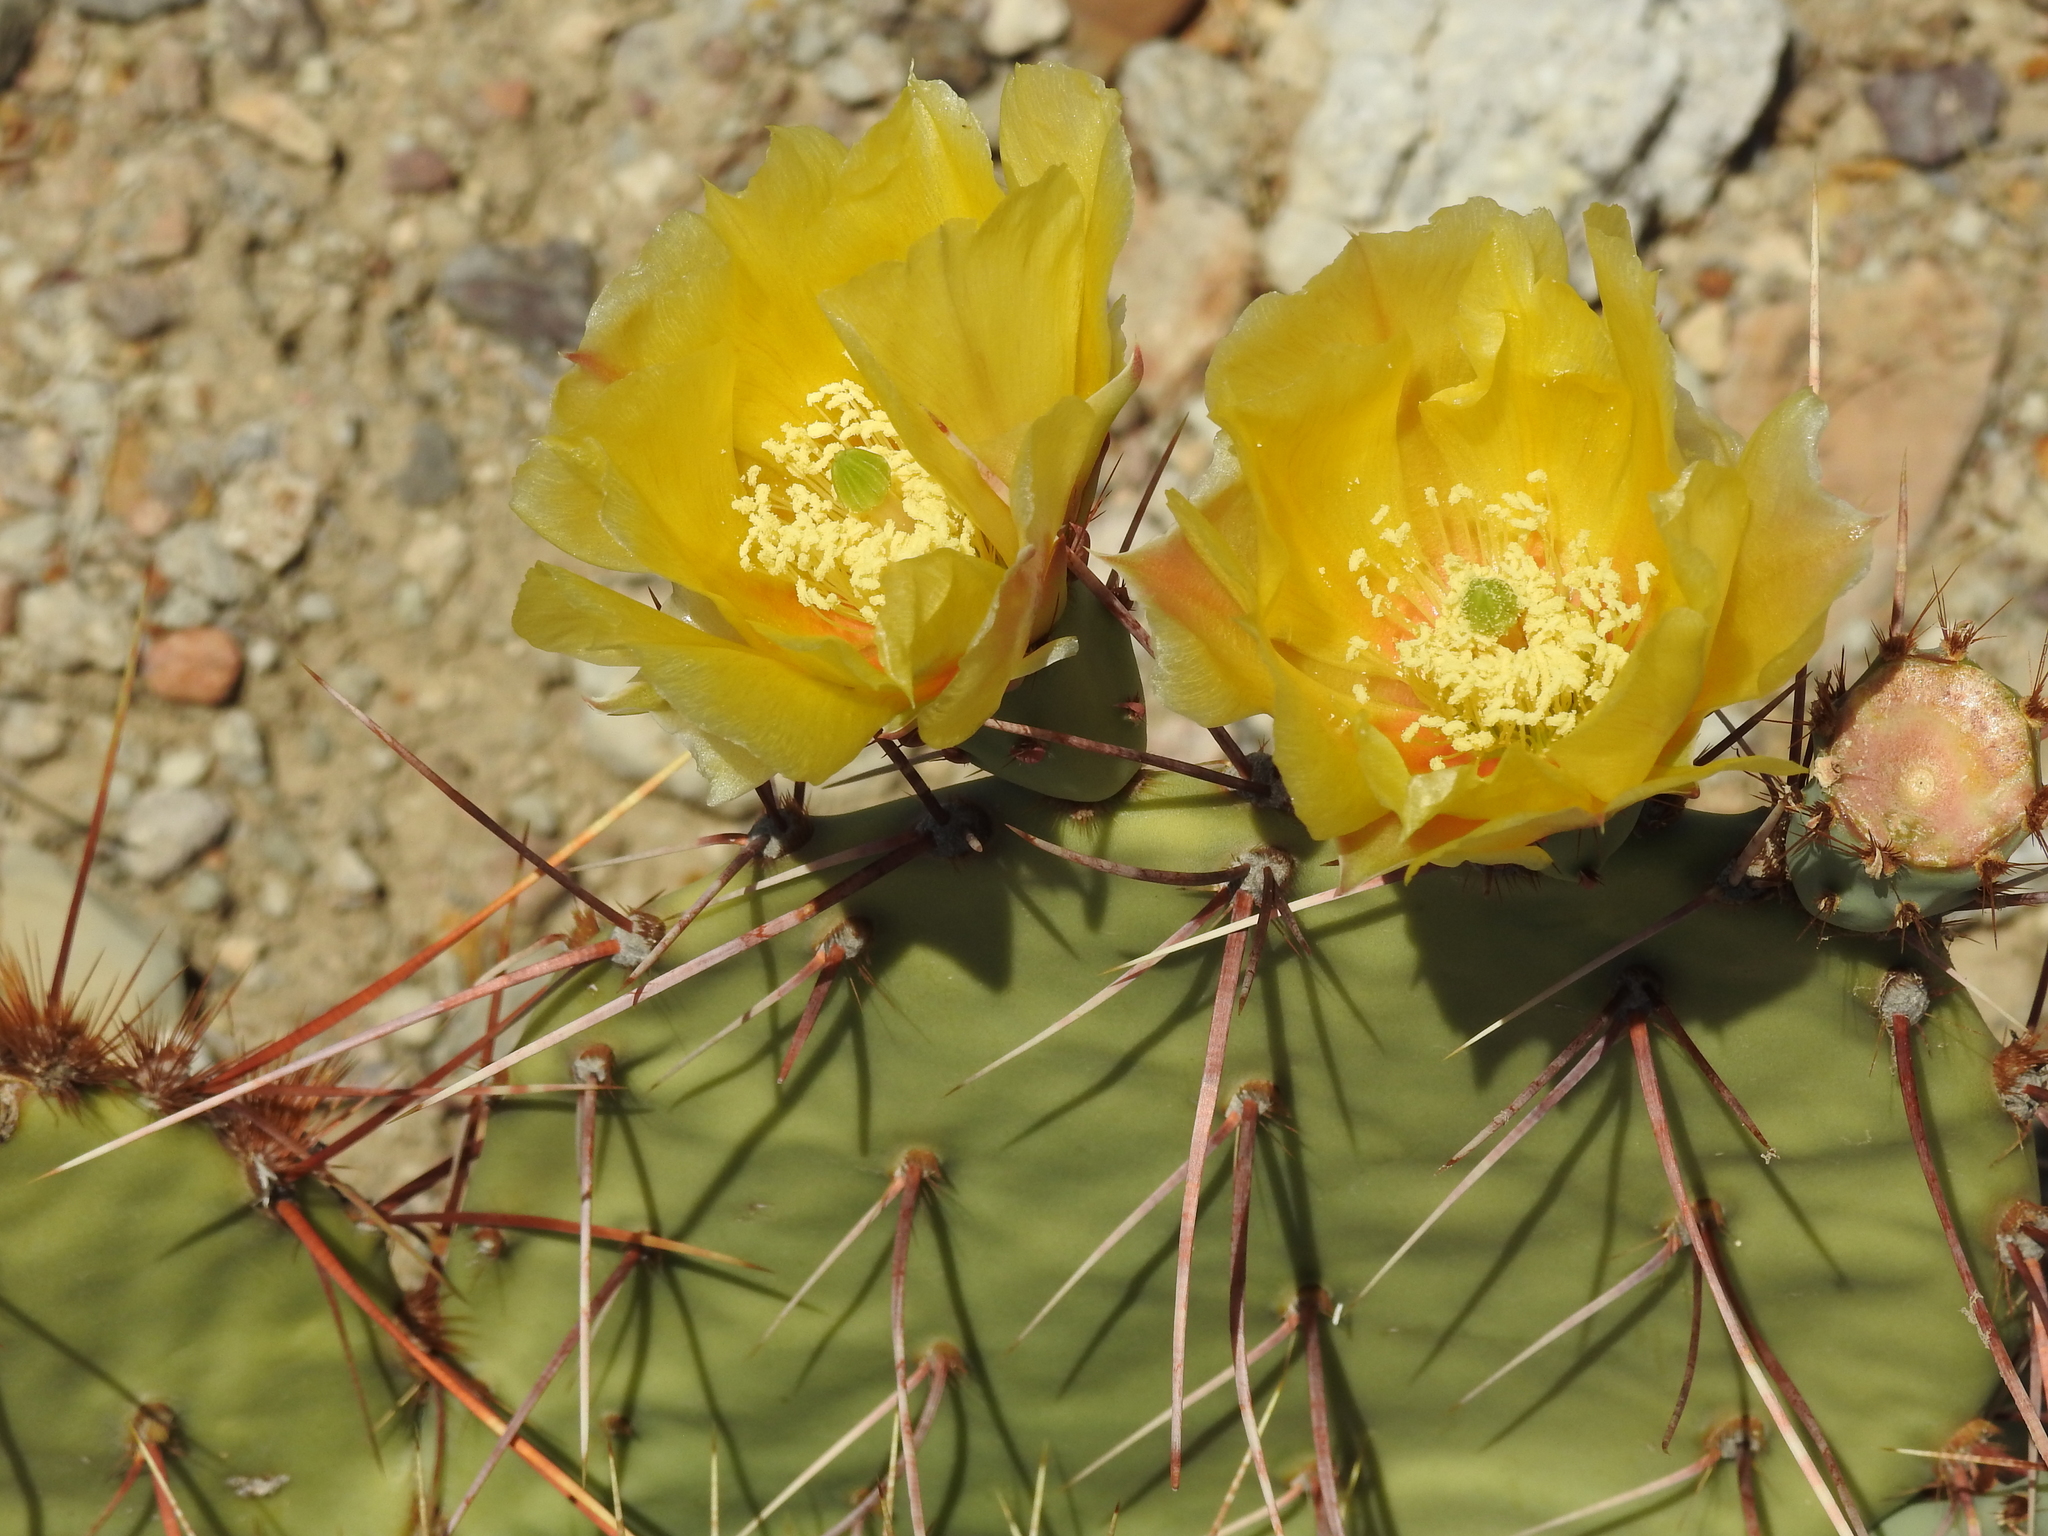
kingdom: Plantae
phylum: Tracheophyta
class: Magnoliopsida
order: Caryophyllales
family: Cactaceae
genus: Opuntia
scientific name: Opuntia phaeacantha
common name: New mexico prickly-pear
